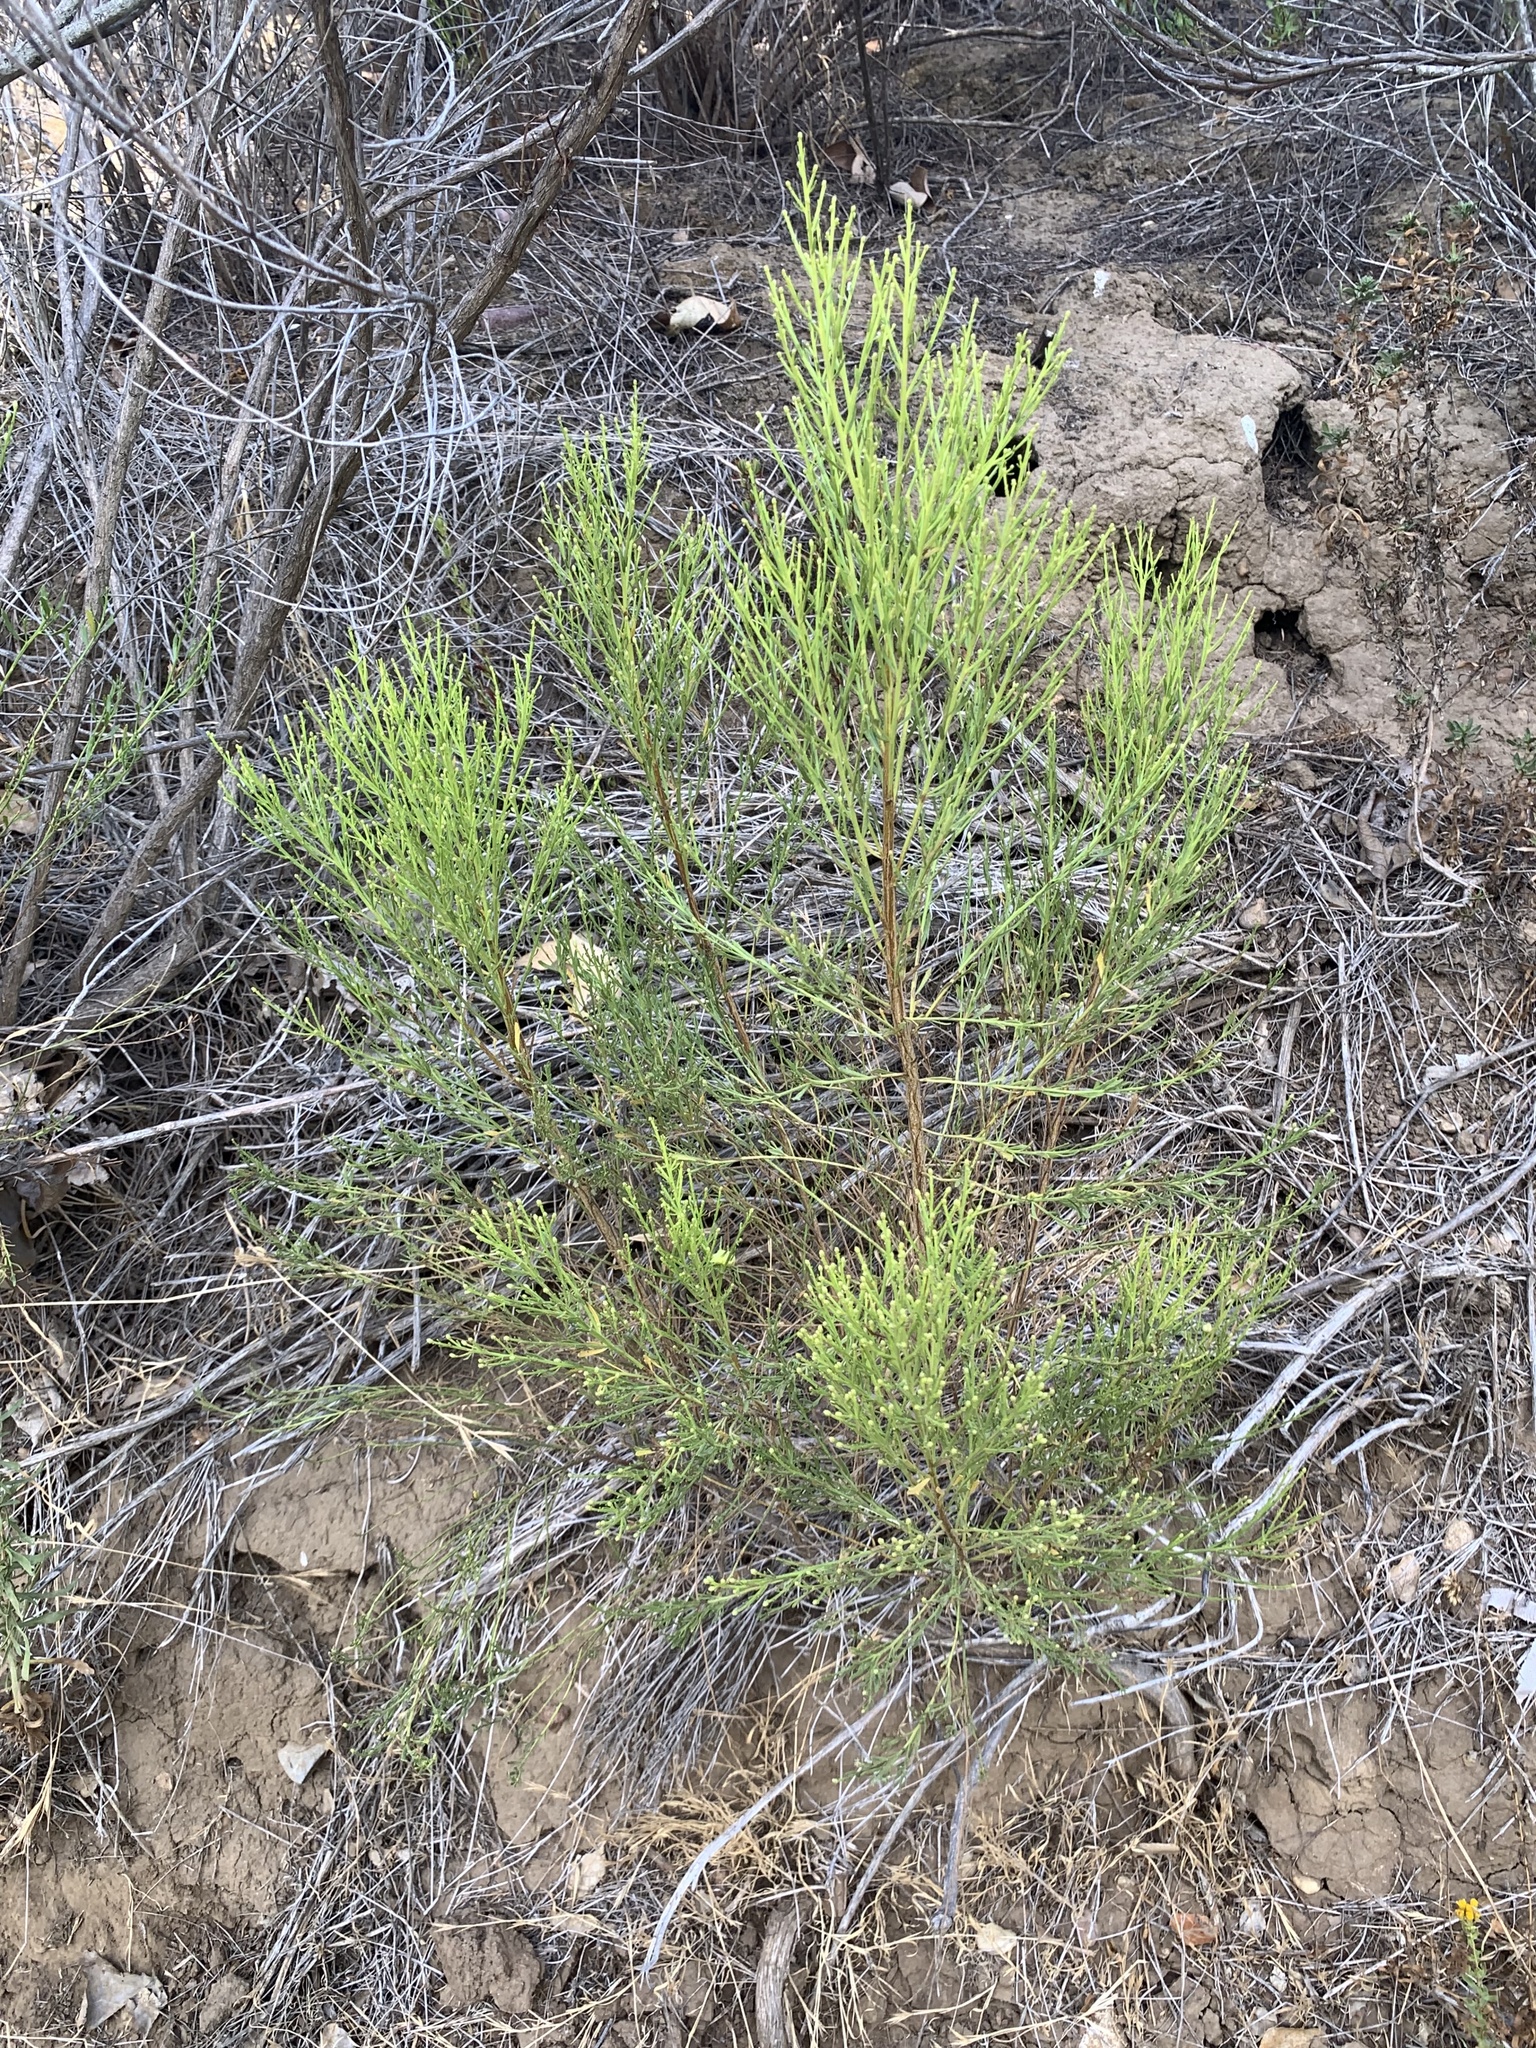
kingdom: Plantae
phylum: Tracheophyta
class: Magnoliopsida
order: Asterales
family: Asteraceae
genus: Baccharis
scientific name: Baccharis sarothroides
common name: Desert-broom
